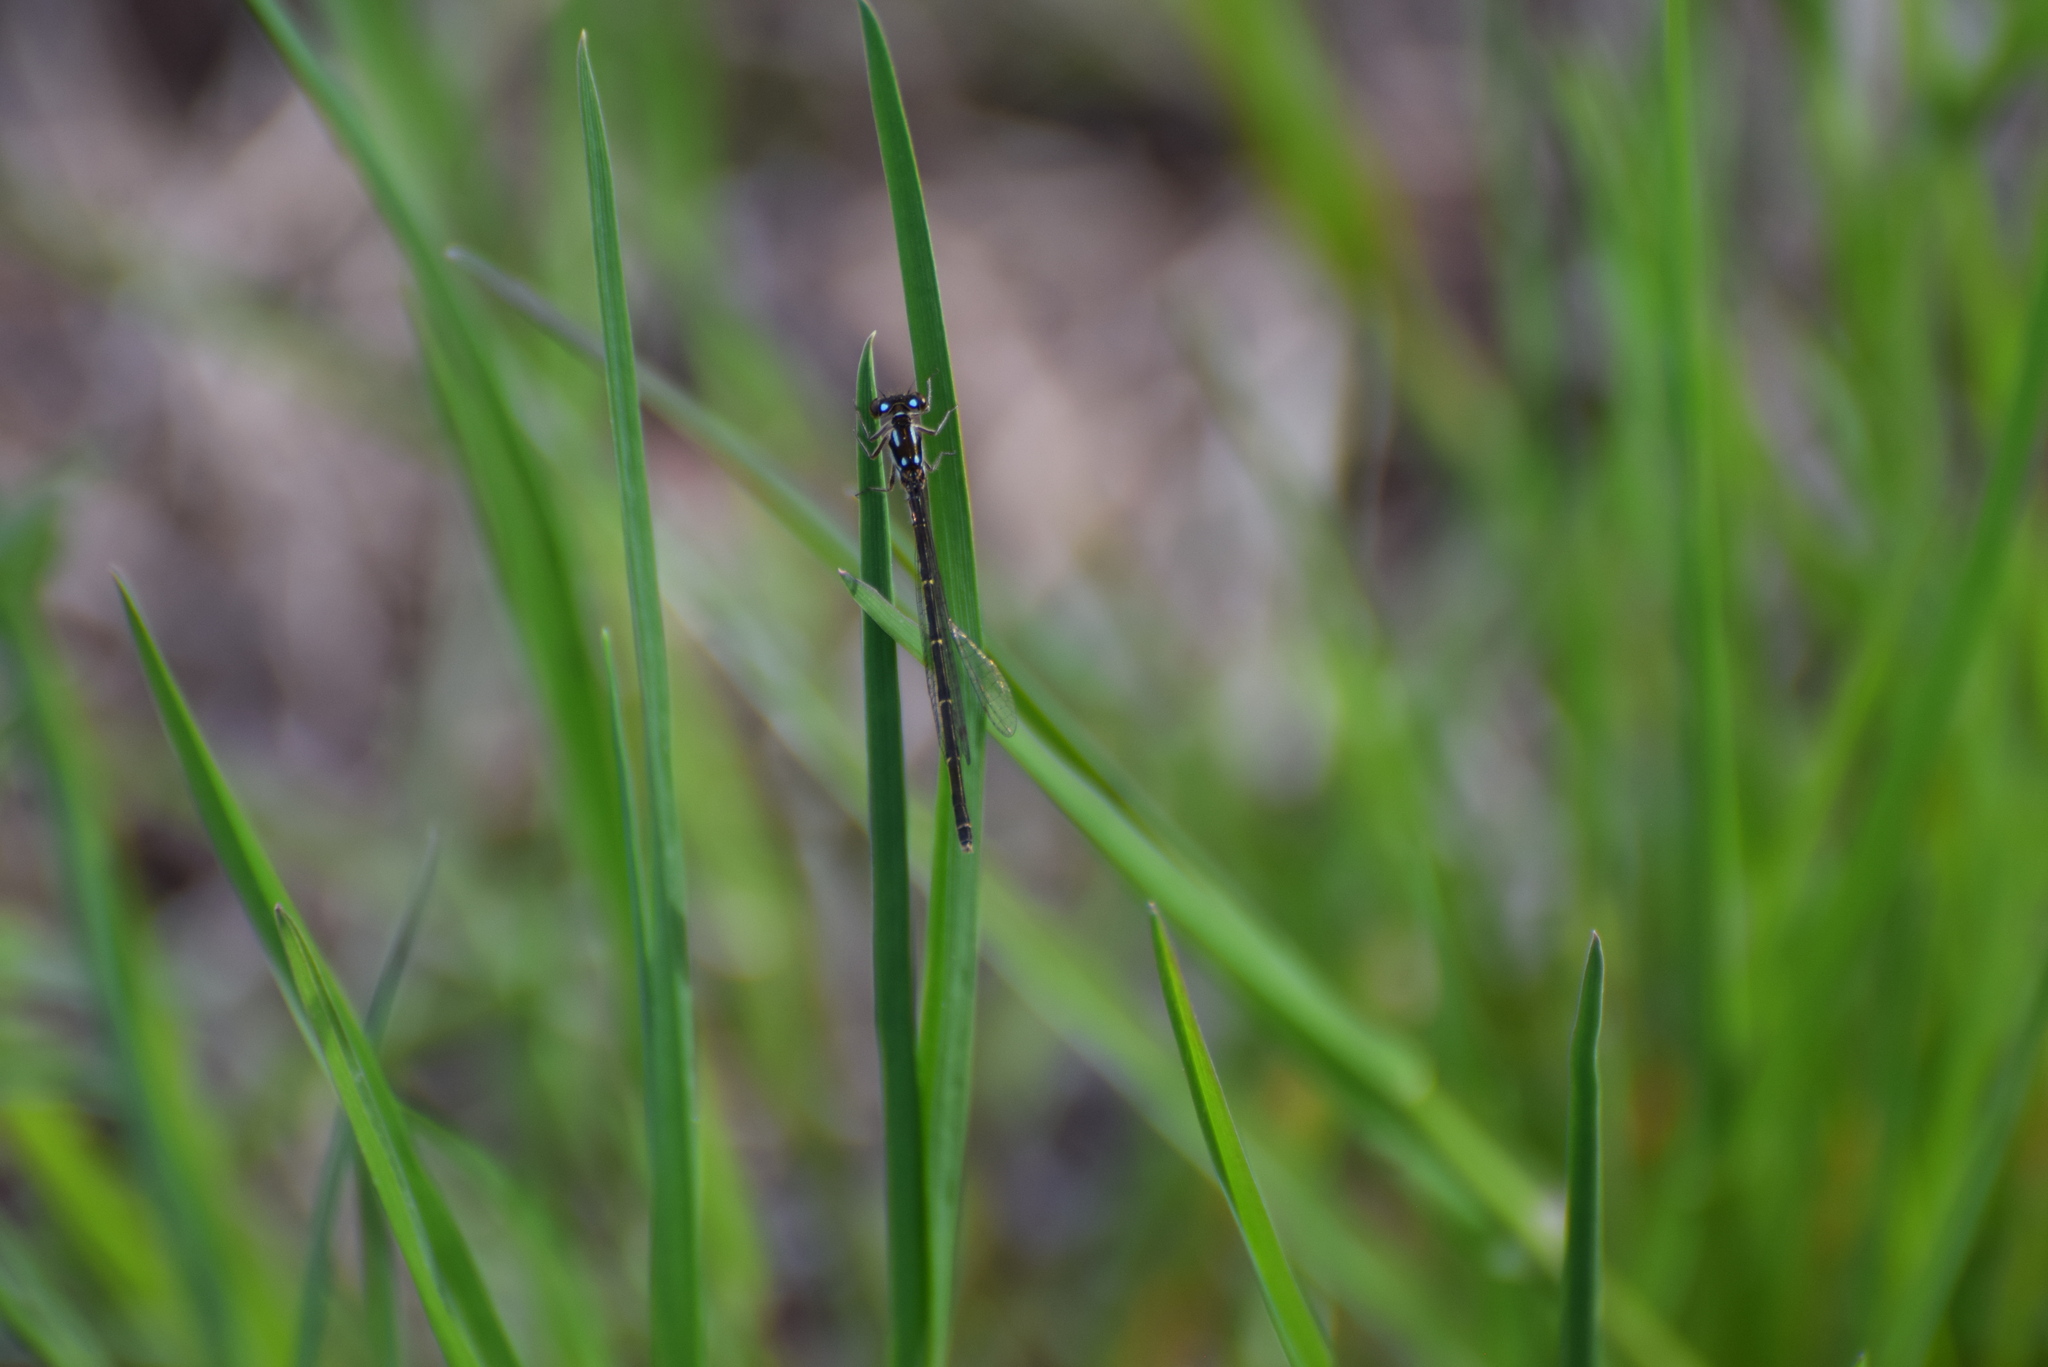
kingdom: Animalia
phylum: Arthropoda
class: Insecta
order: Odonata
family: Coenagrionidae
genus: Ischnura
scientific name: Ischnura posita
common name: Fragile forktail
